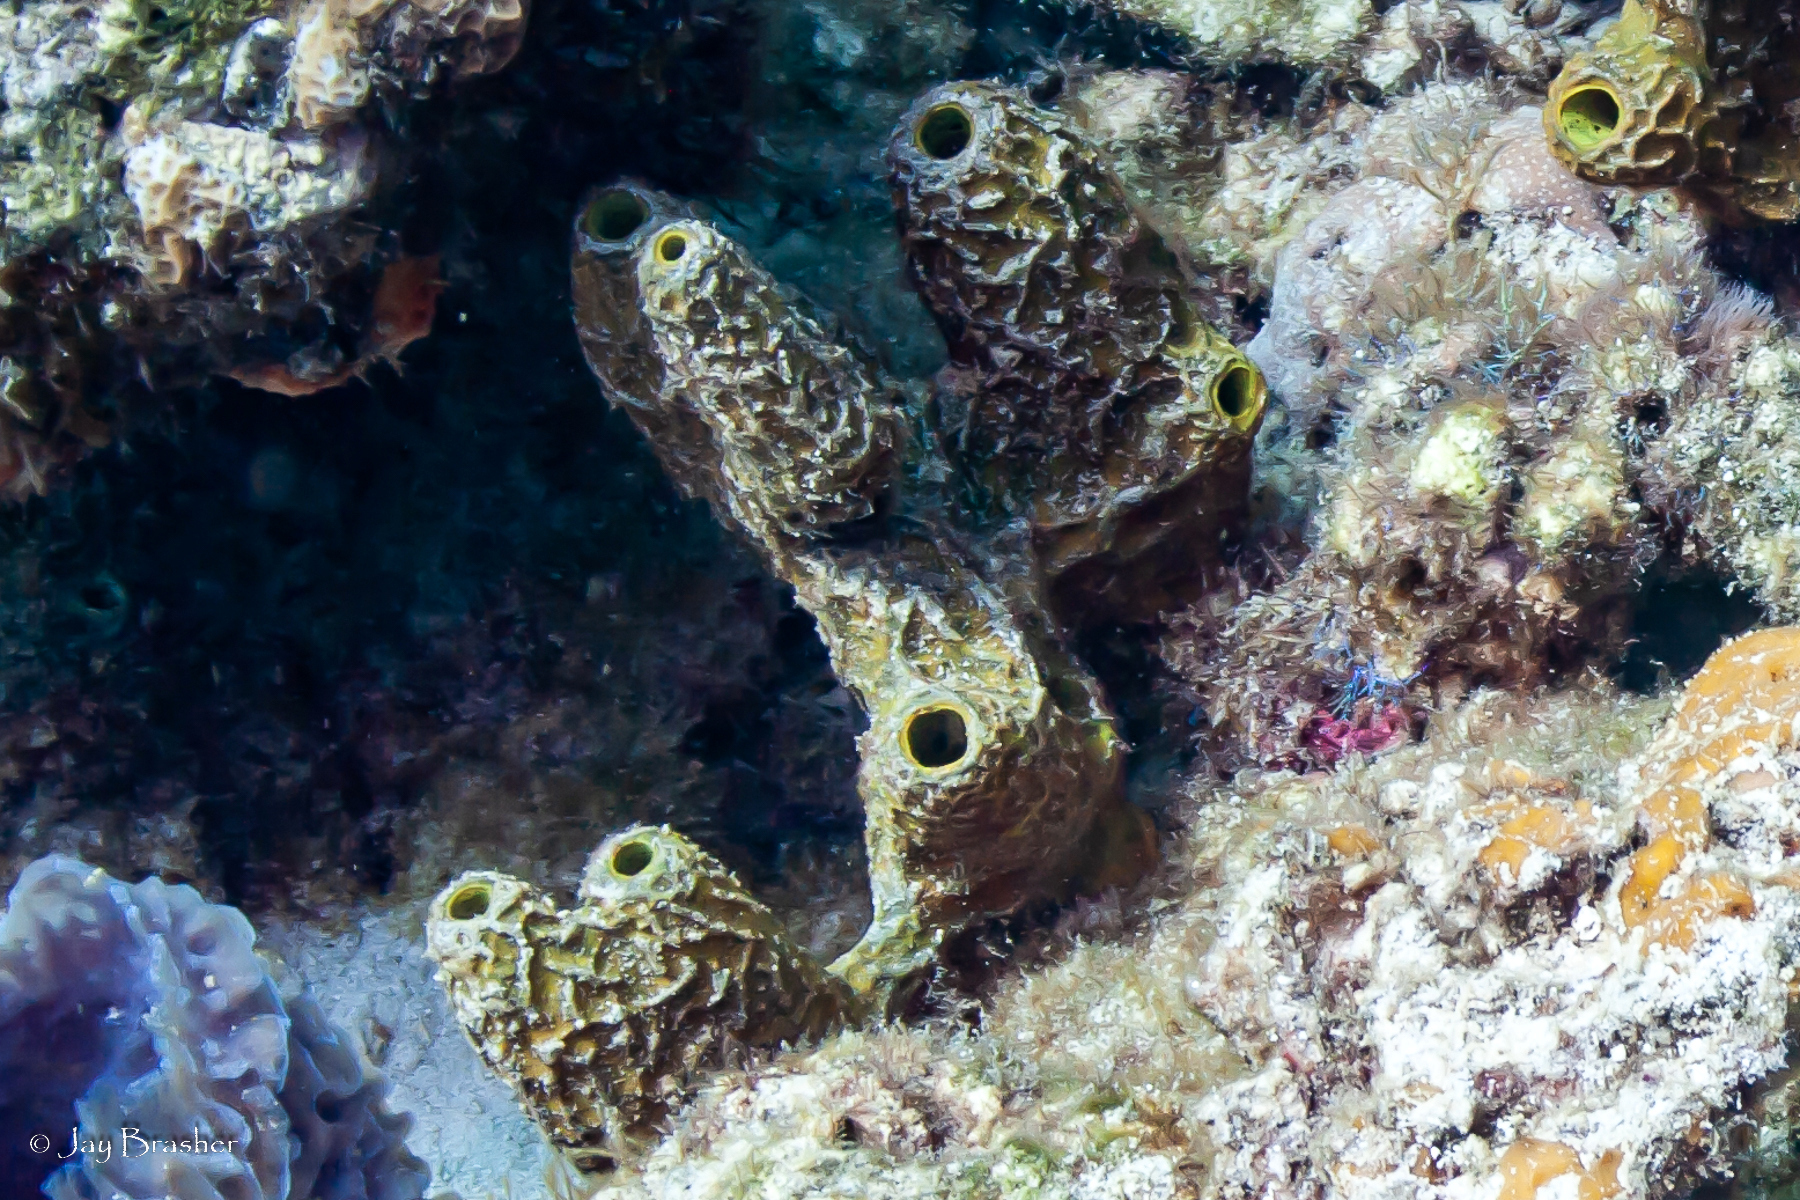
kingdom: Animalia
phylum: Porifera
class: Demospongiae
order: Verongiida
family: Aplysinidae
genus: Verongula
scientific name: Verongula rigida
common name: Pitted sponge
